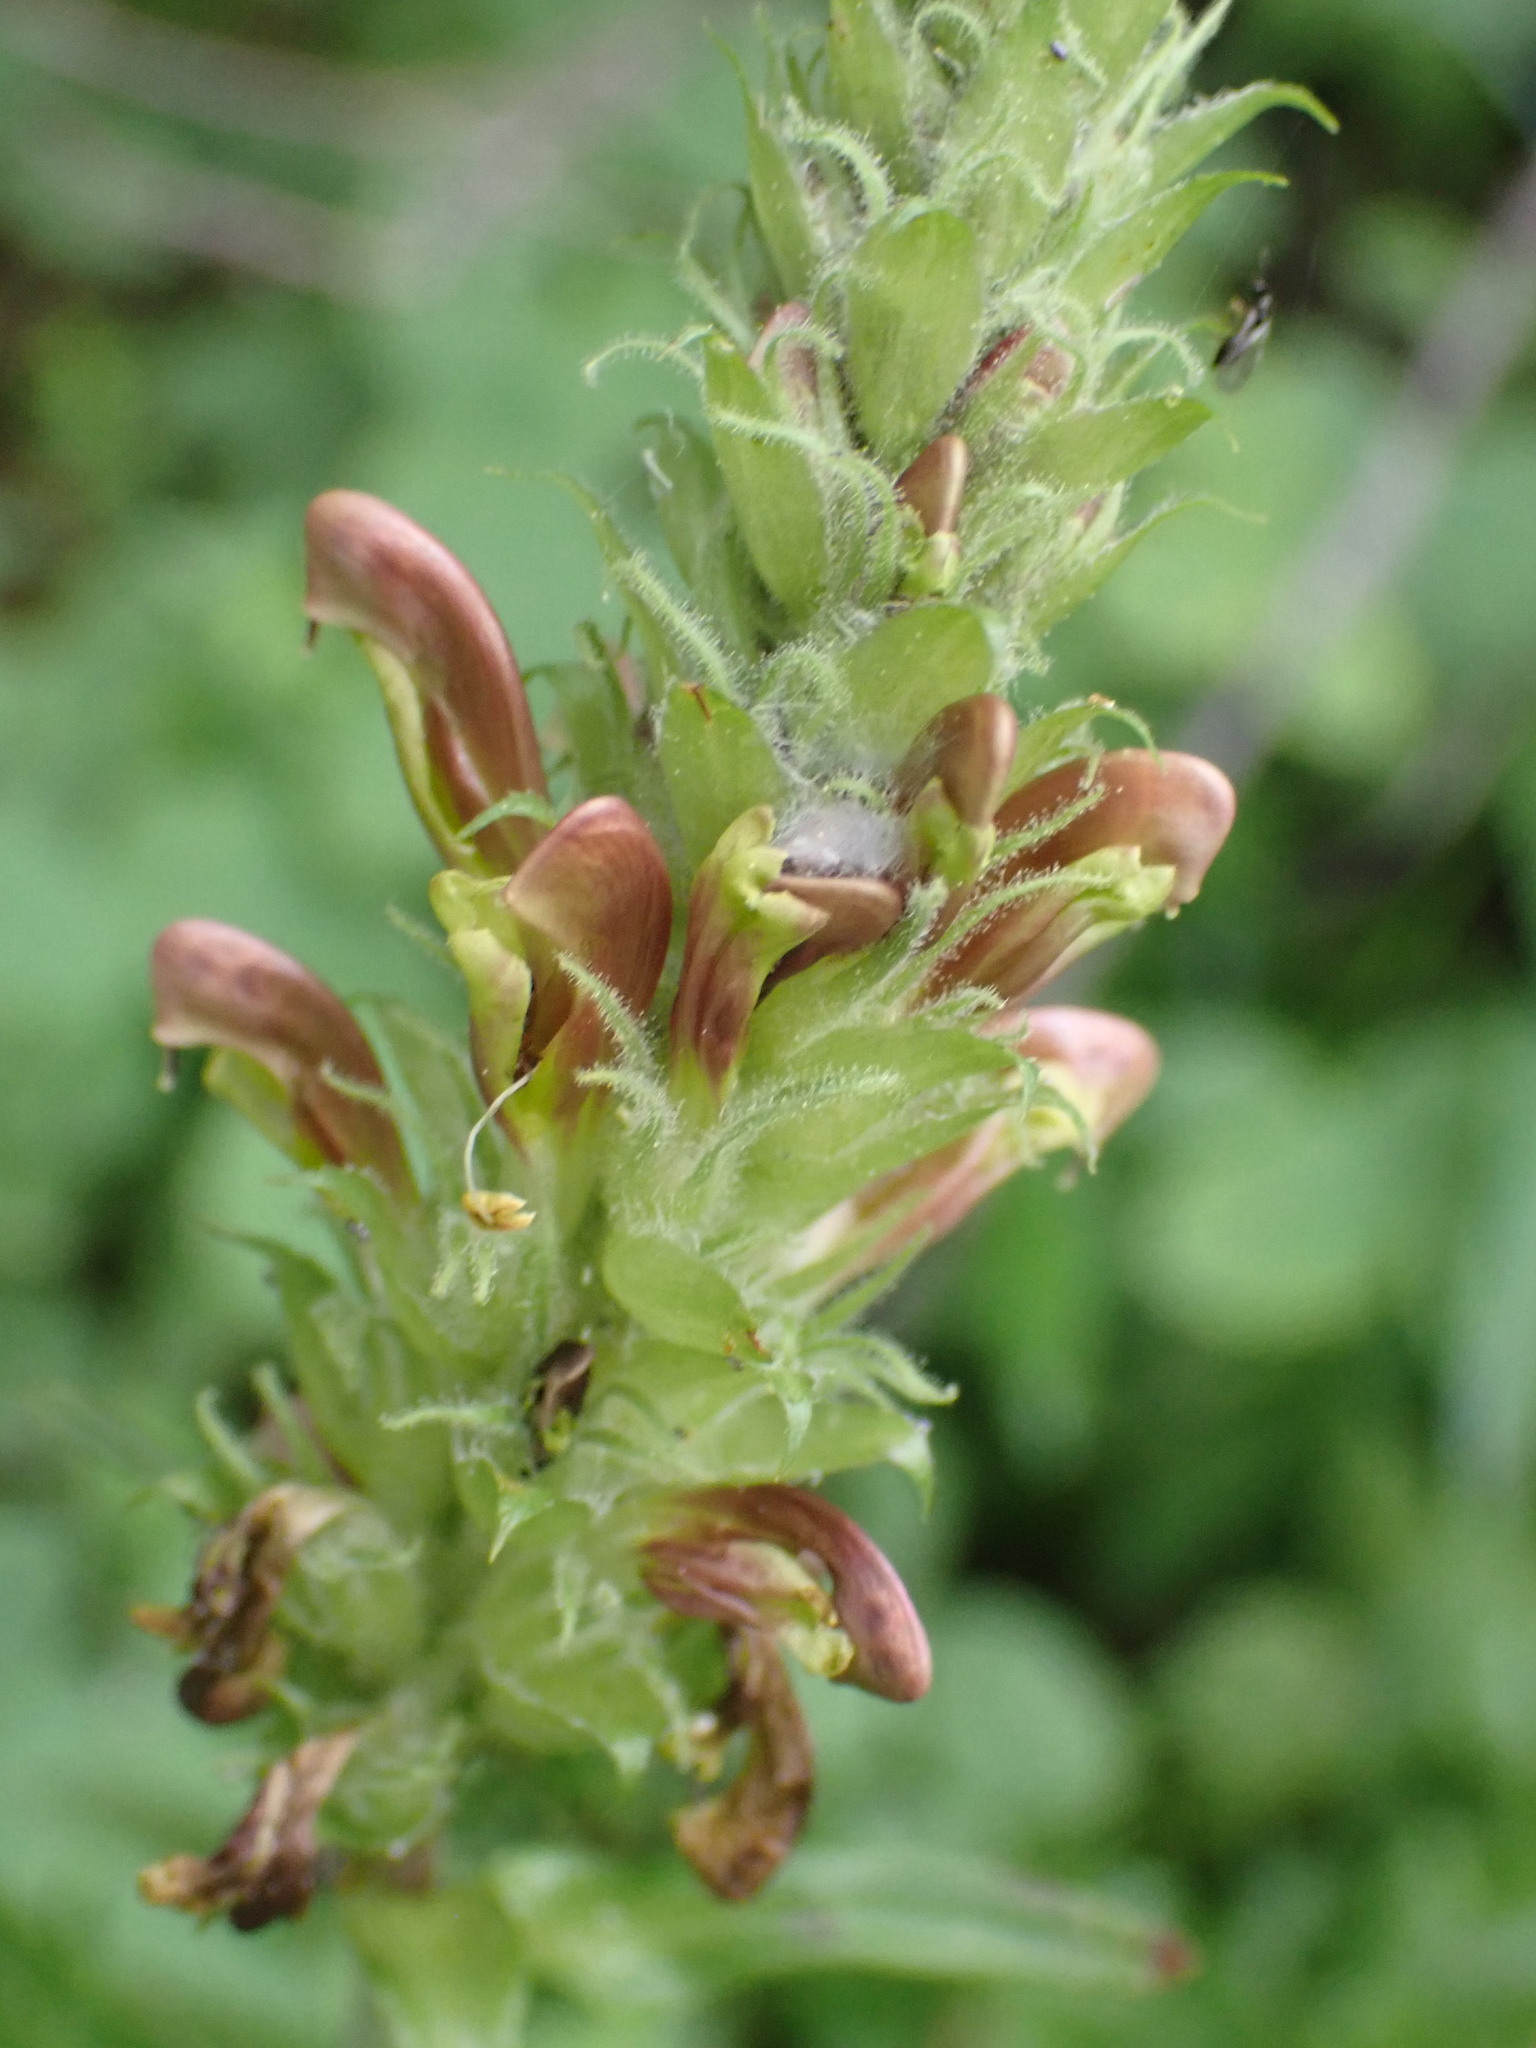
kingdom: Plantae
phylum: Tracheophyta
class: Magnoliopsida
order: Lamiales
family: Orobanchaceae
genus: Pedicularis
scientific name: Pedicularis bracteosa
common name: Bracted lousewort
